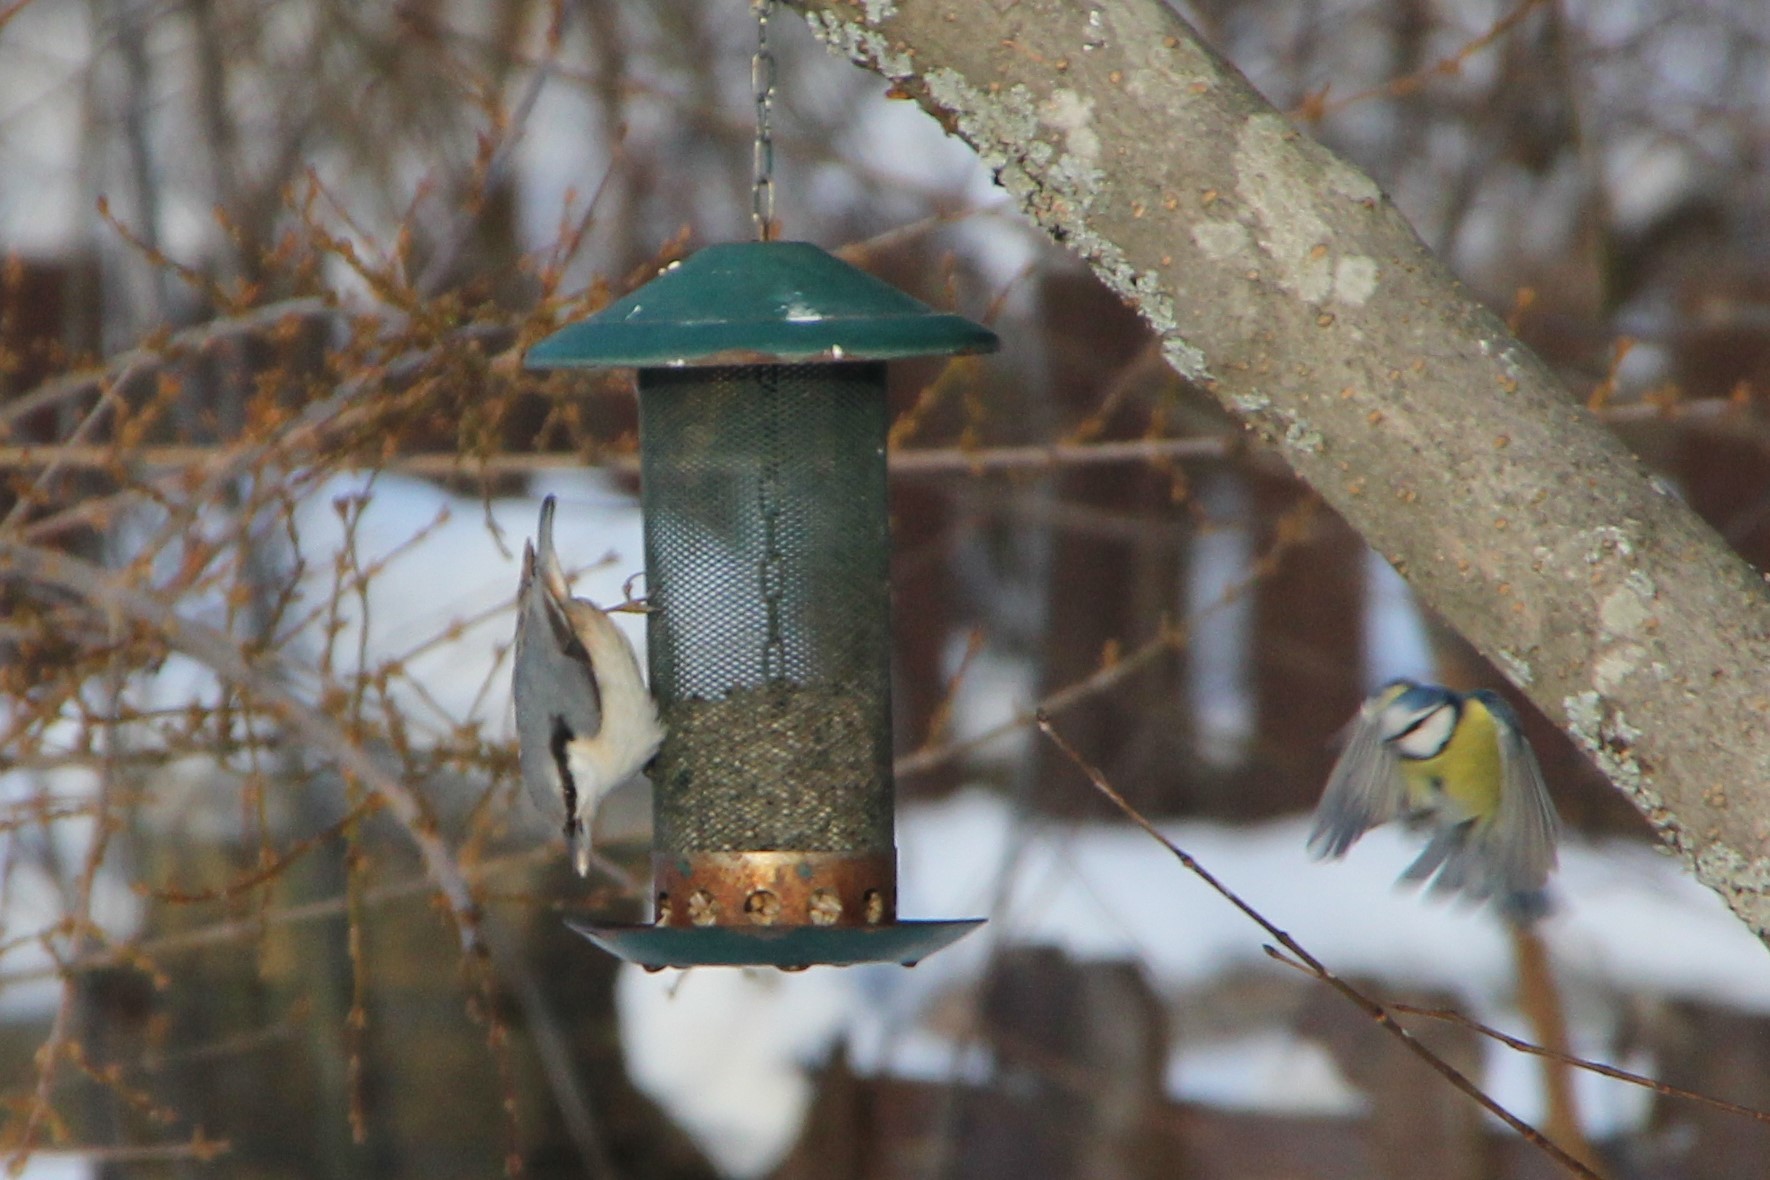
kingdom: Animalia
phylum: Chordata
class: Aves
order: Passeriformes
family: Paridae
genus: Cyanistes
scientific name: Cyanistes caeruleus
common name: Eurasian blue tit
